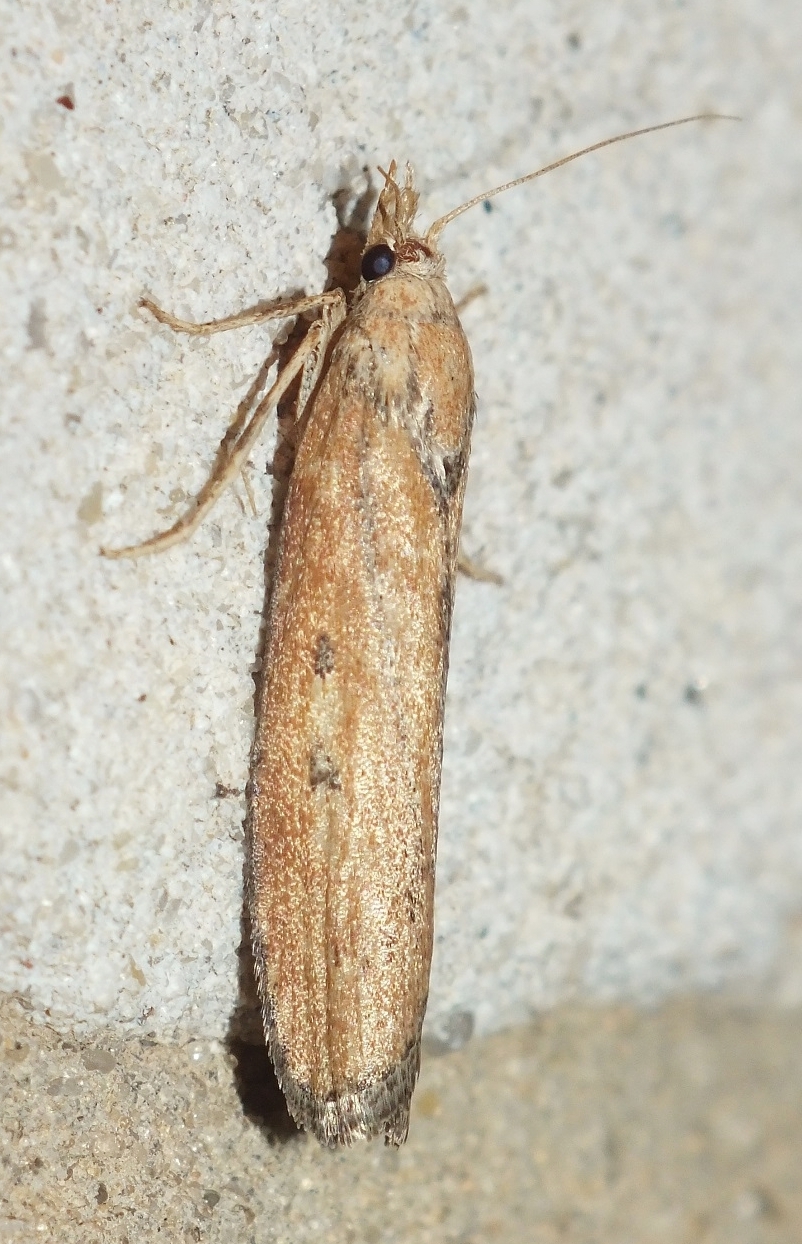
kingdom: Animalia
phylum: Arthropoda
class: Insecta
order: Lepidoptera
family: Pyralidae
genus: Aphomia
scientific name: Aphomia zelleri
